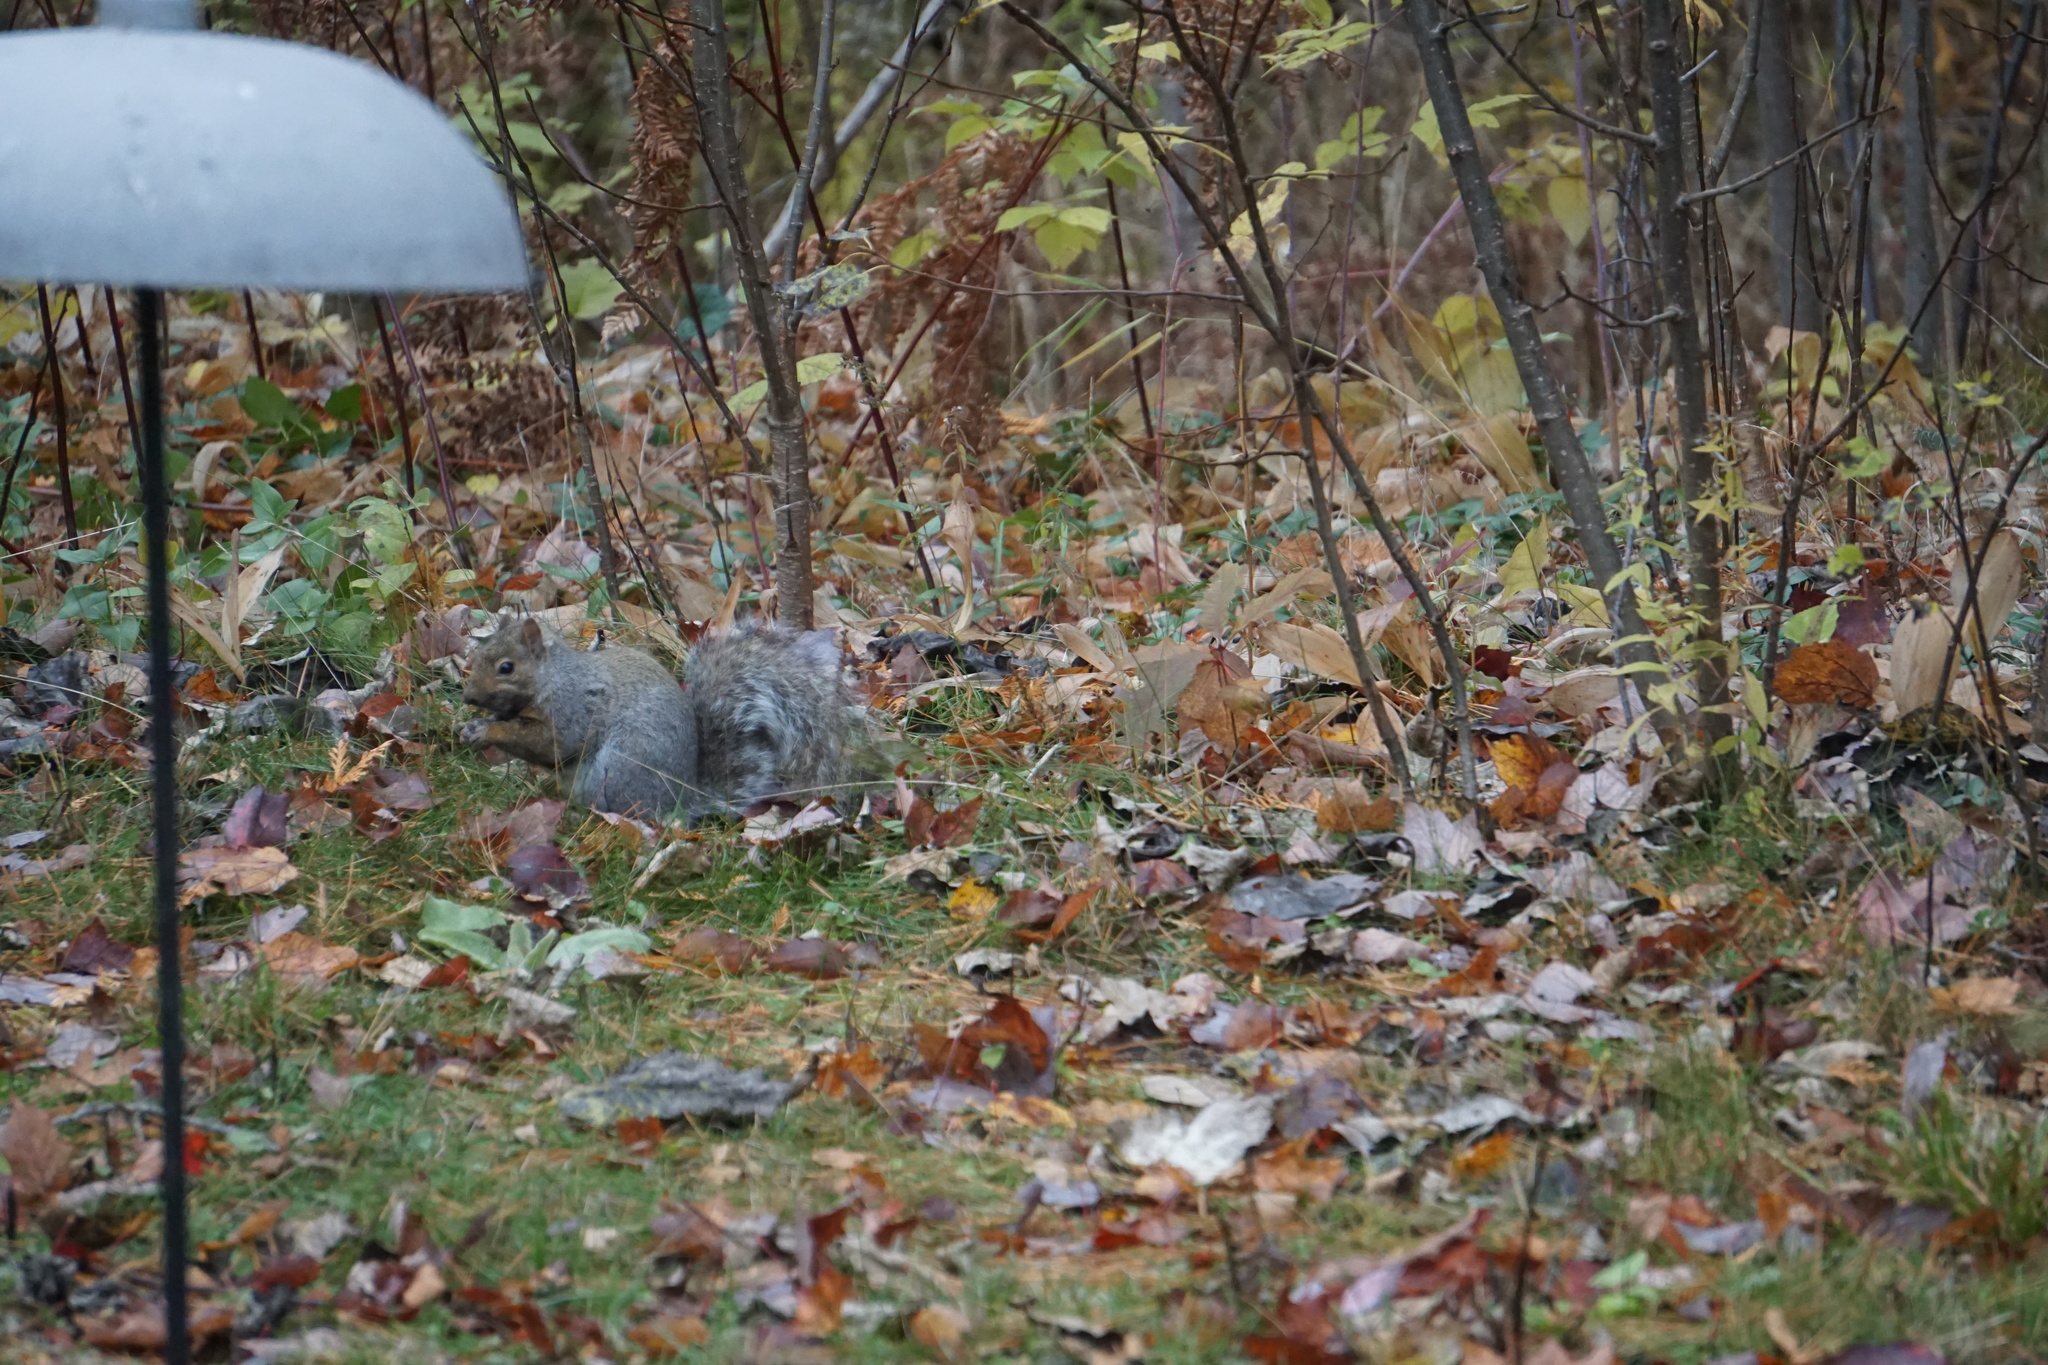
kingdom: Animalia
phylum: Chordata
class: Mammalia
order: Rodentia
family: Sciuridae
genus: Sciurus
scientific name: Sciurus carolinensis
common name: Eastern gray squirrel
